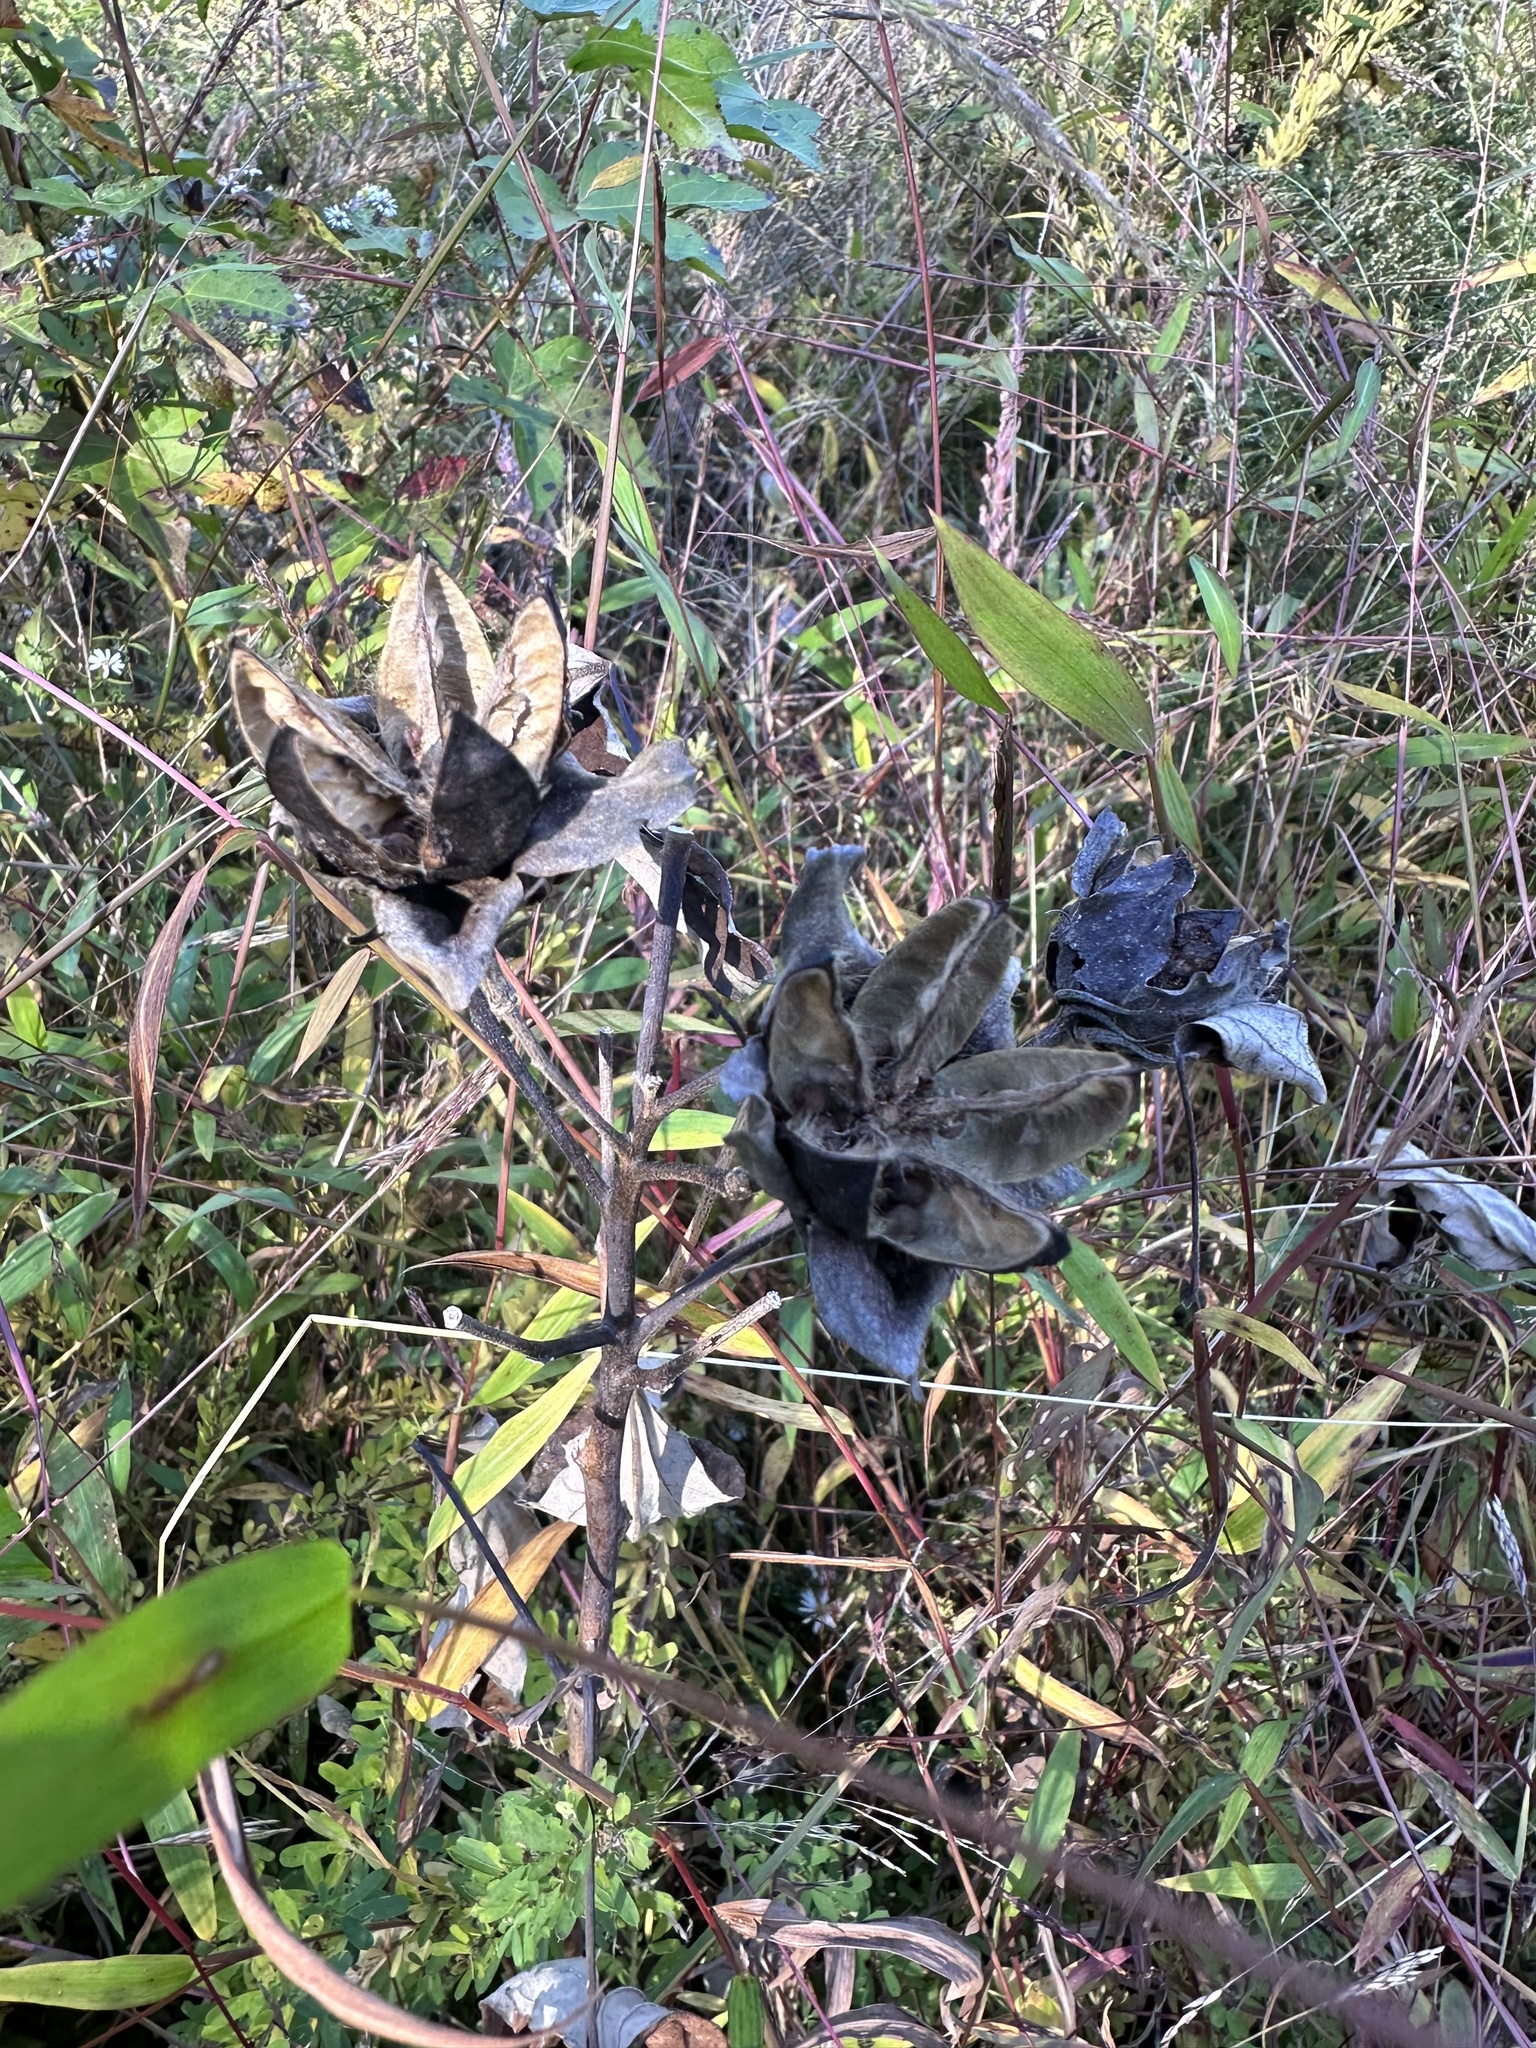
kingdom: Plantae
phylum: Tracheophyta
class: Magnoliopsida
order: Malvales
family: Malvaceae
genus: Hibiscus
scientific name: Hibiscus moscheutos
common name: Common rose-mallow
